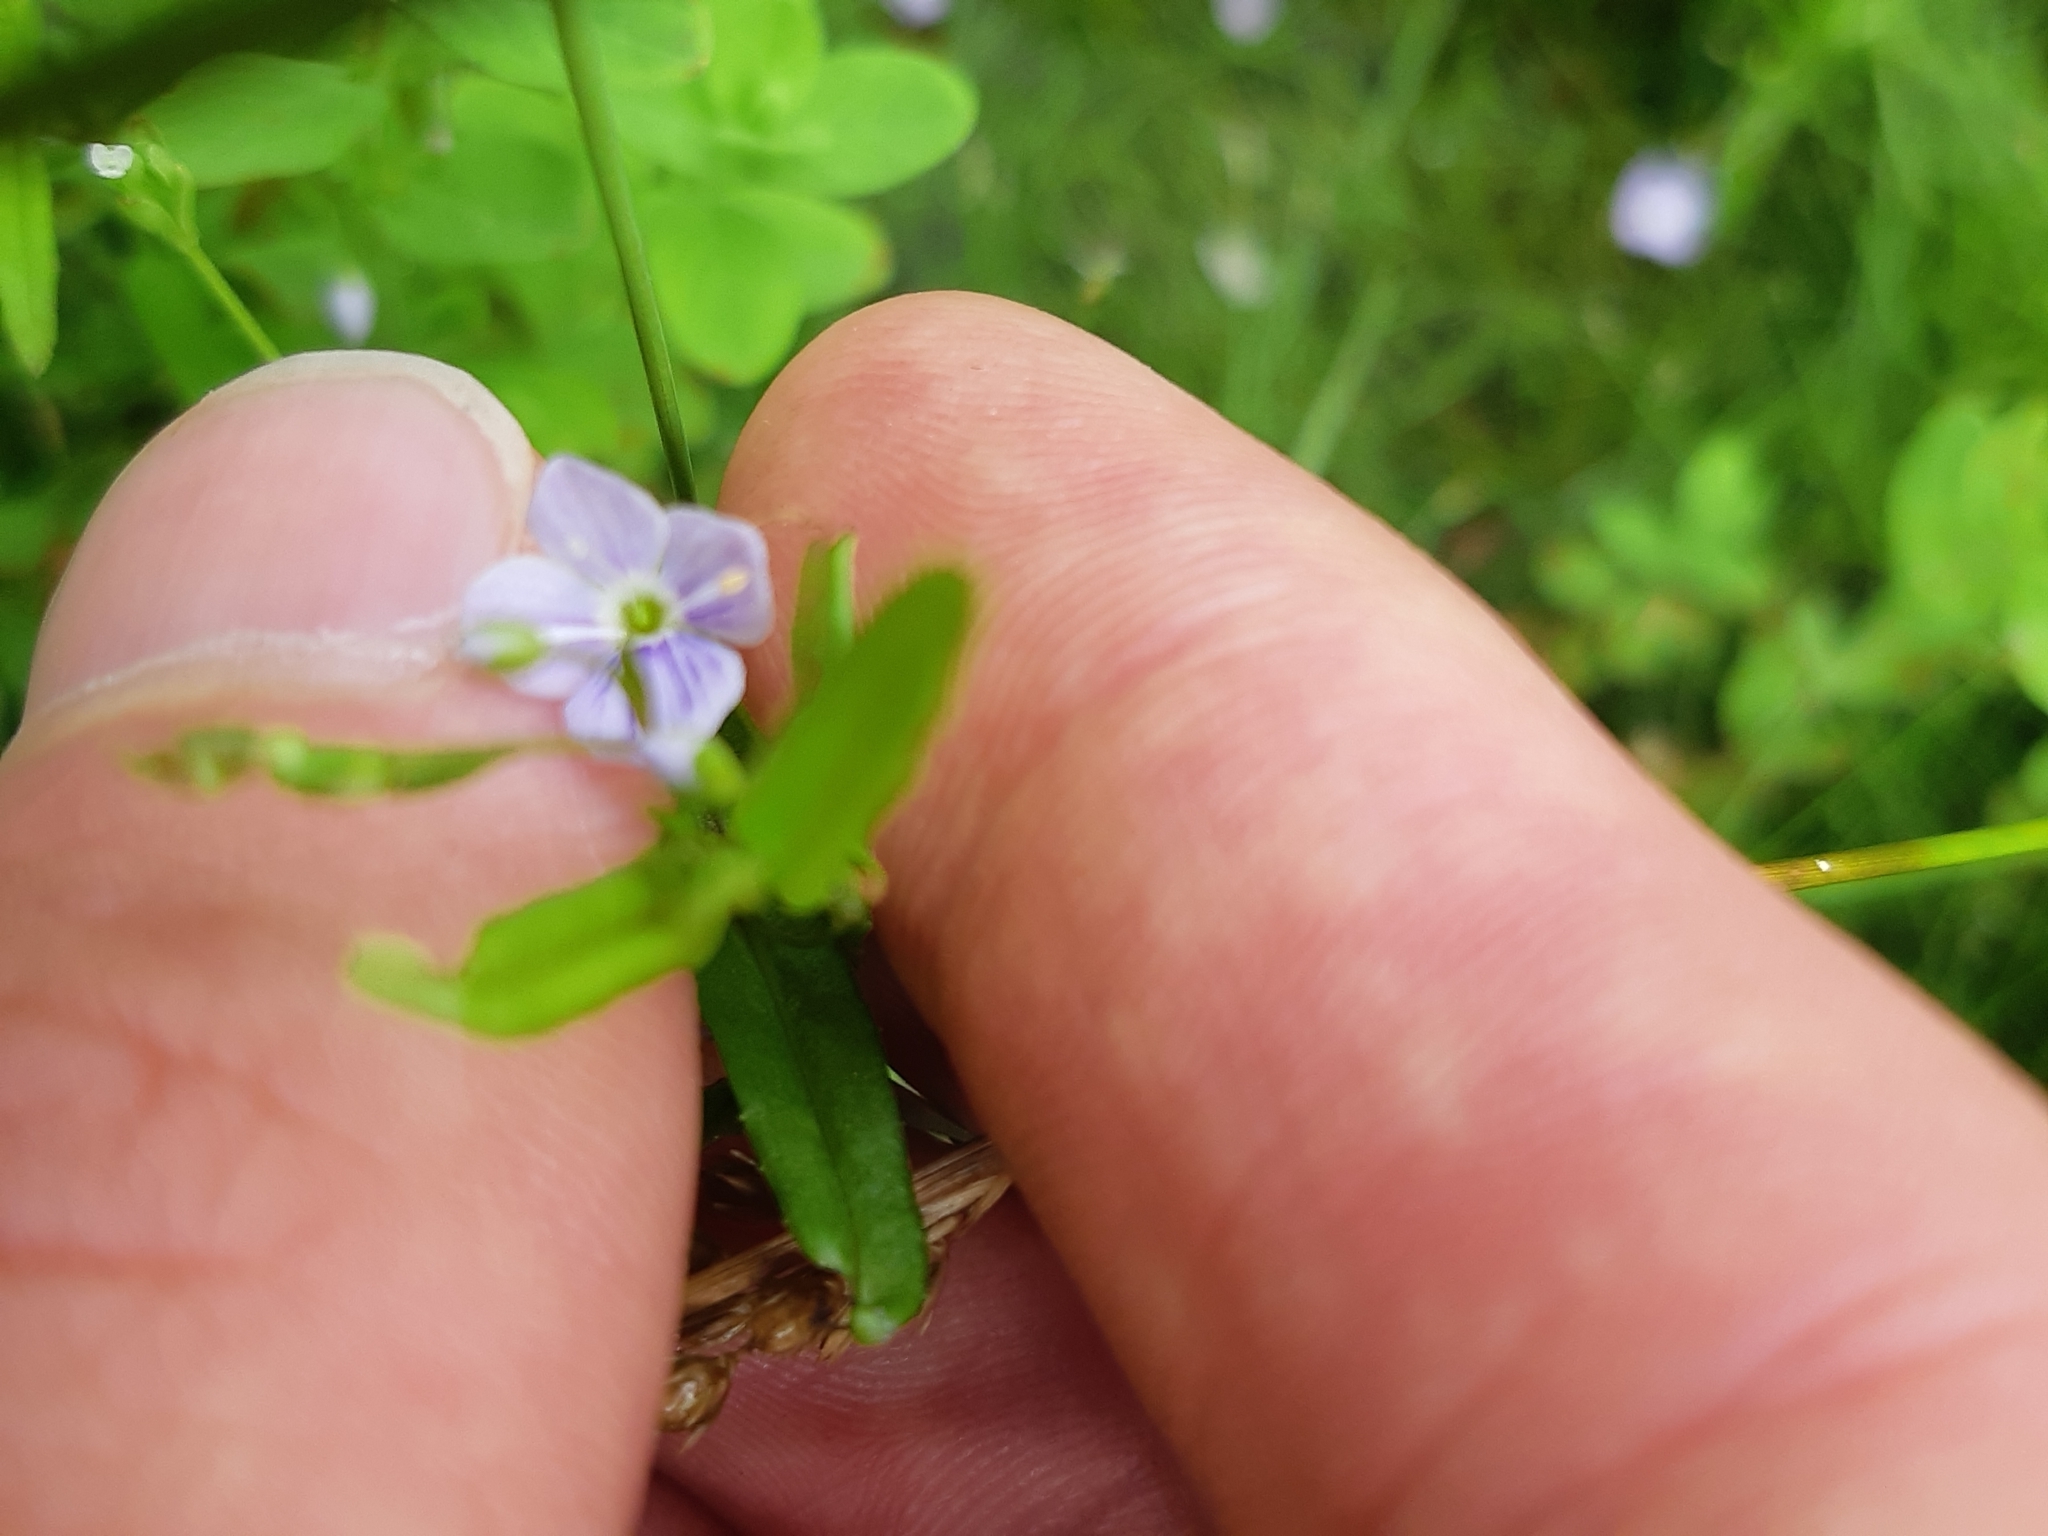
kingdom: Plantae
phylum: Tracheophyta
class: Magnoliopsida
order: Lamiales
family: Plantaginaceae
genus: Veronica
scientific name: Veronica scutellata
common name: Marsh speedwell
